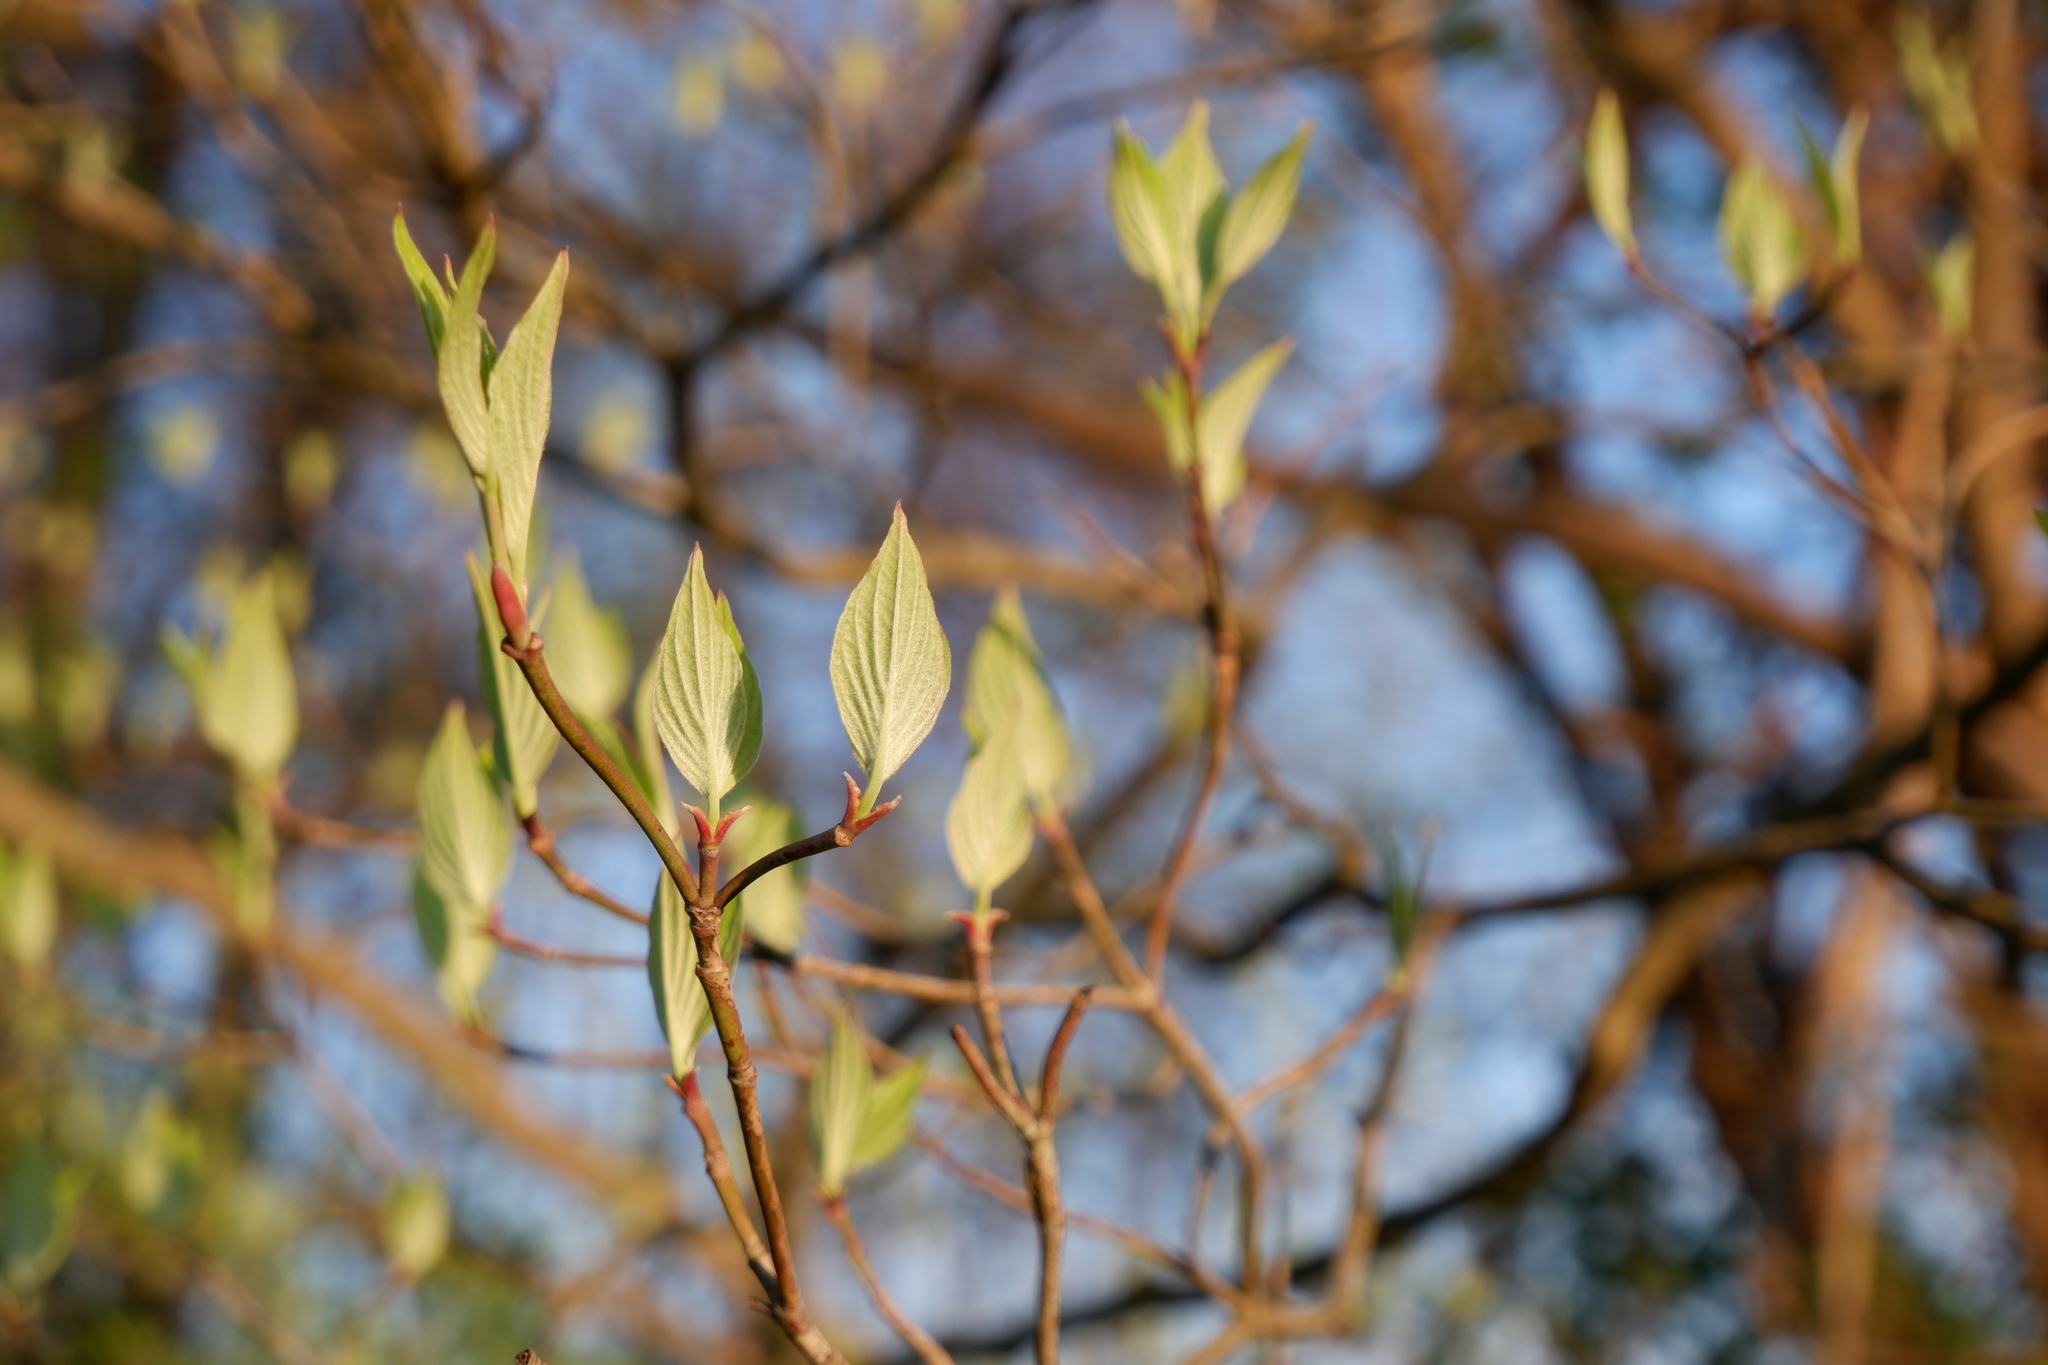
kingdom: Plantae
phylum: Tracheophyta
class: Magnoliopsida
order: Cornales
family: Cornaceae
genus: Cornus
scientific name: Cornus florida
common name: Flowering dogwood
